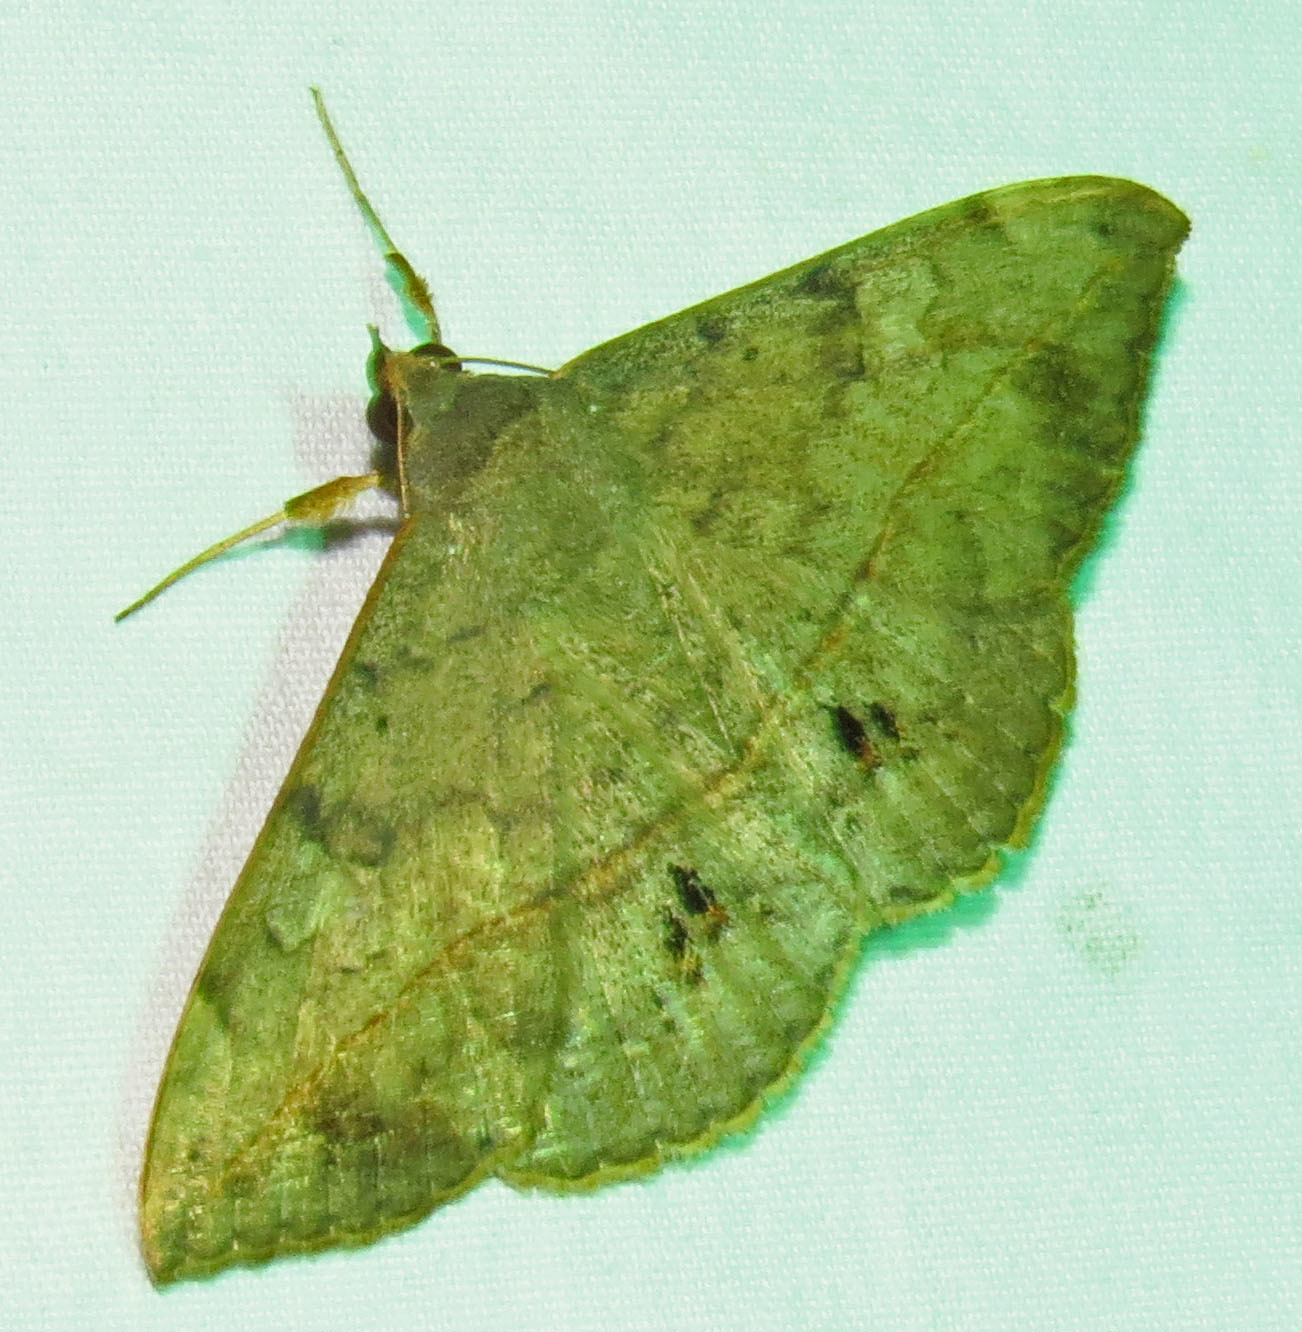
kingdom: Animalia
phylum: Arthropoda
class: Insecta
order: Lepidoptera
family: Erebidae
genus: Anticarsia
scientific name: Anticarsia gemmatalis
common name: Cutworm moth
